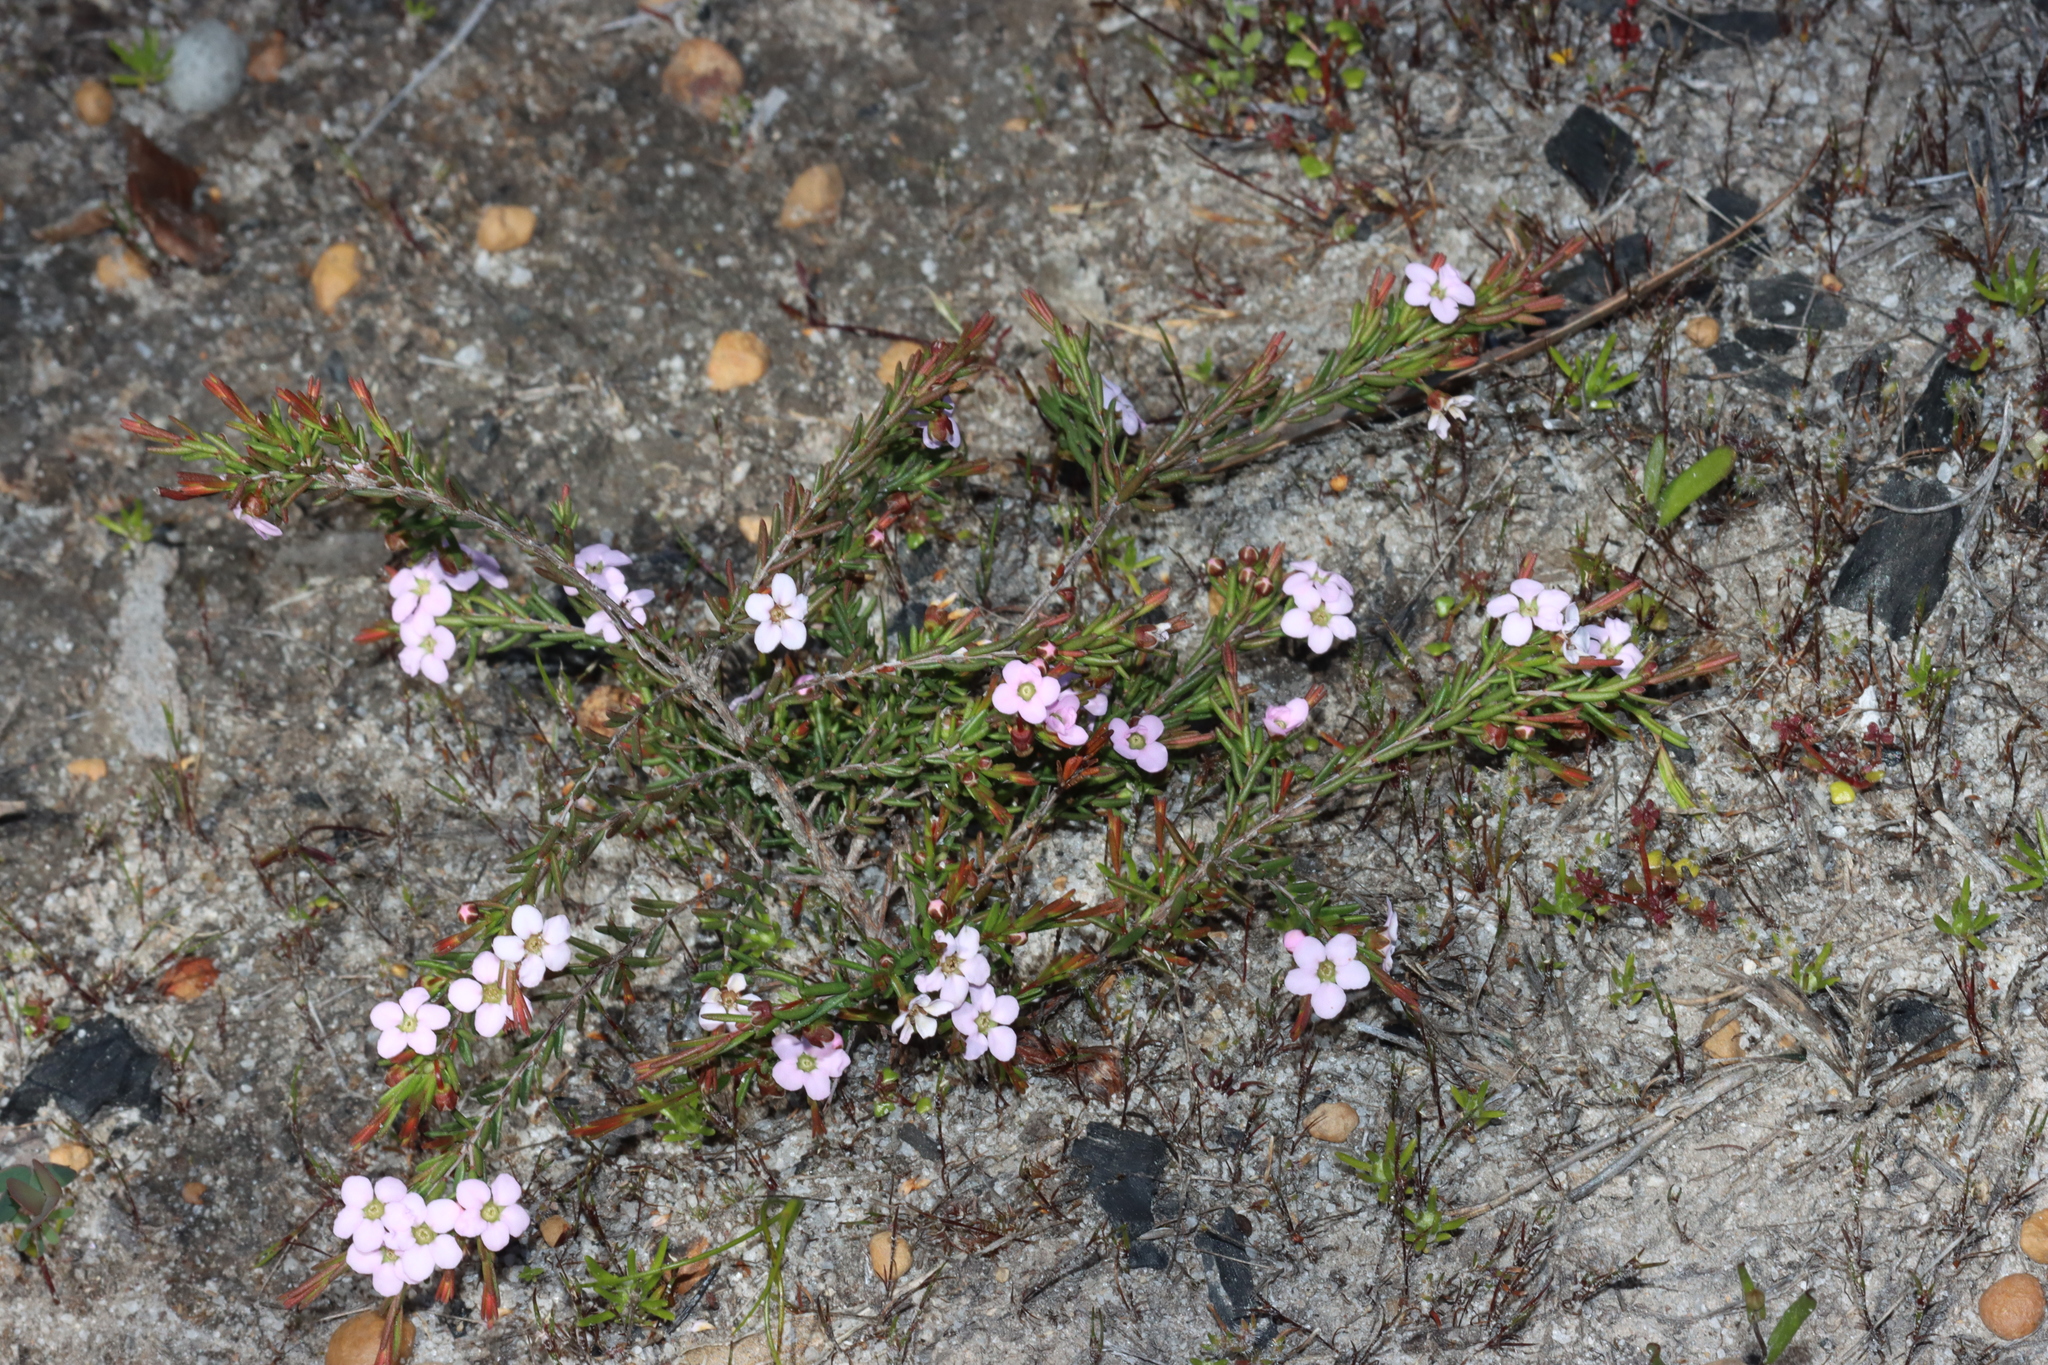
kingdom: Plantae
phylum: Tracheophyta
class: Magnoliopsida
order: Myrtales
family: Myrtaceae
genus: Rinzia
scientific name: Rinzia fumana
